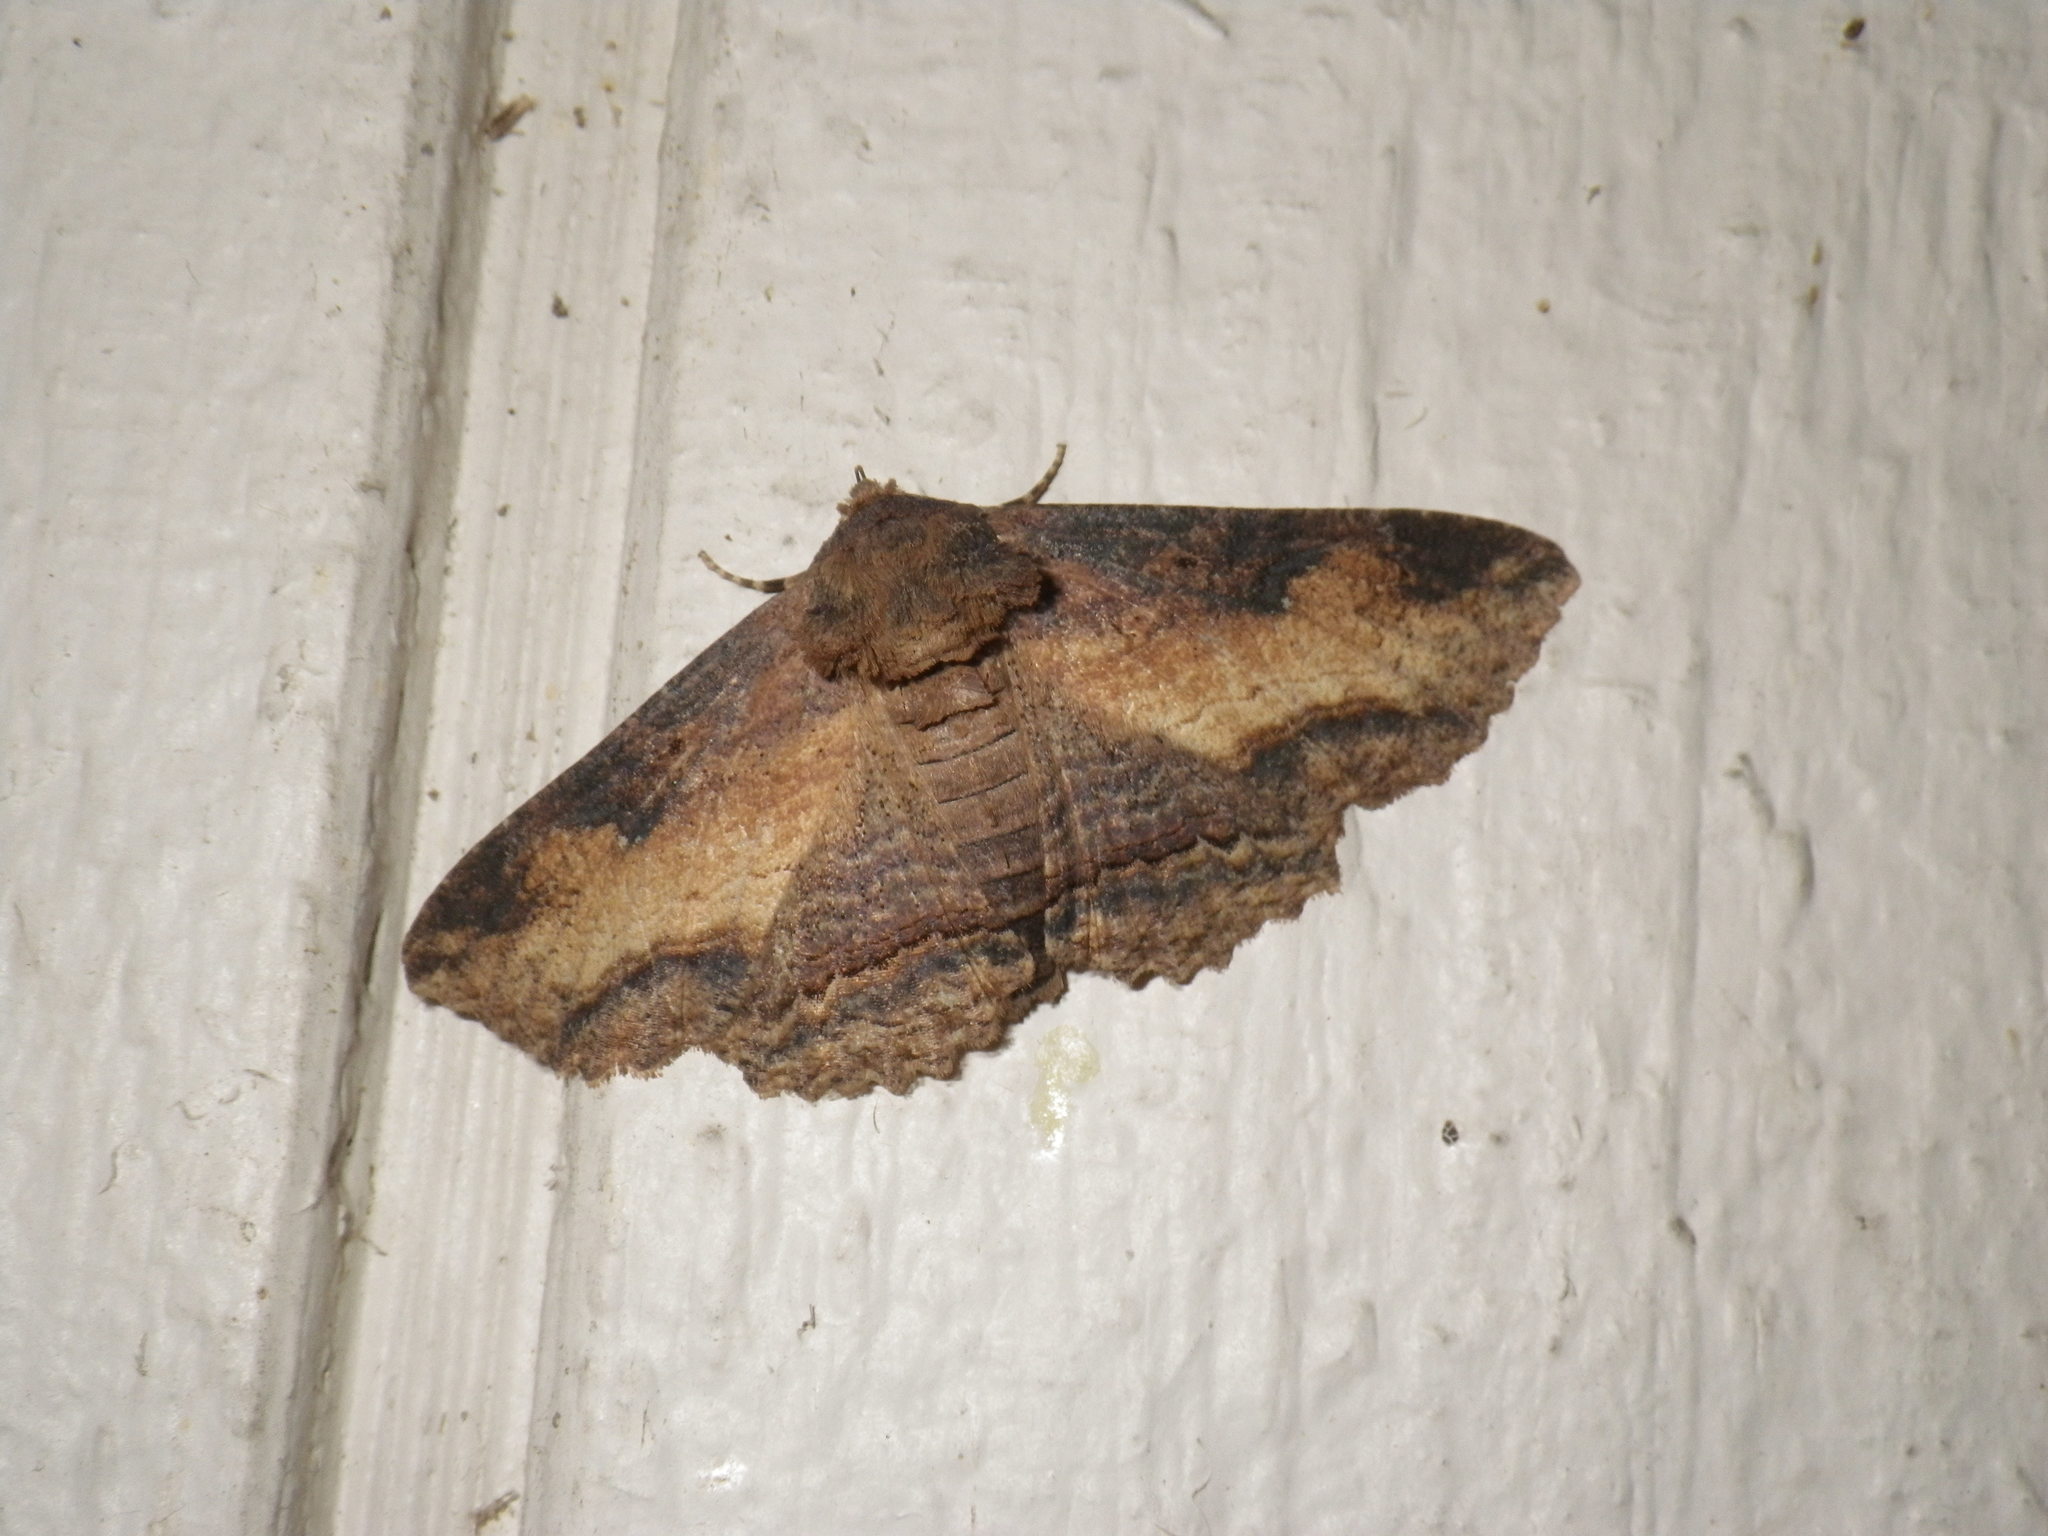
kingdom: Animalia
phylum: Arthropoda
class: Insecta
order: Lepidoptera
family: Erebidae
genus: Zale
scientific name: Zale lunata
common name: Lunate zale moth
